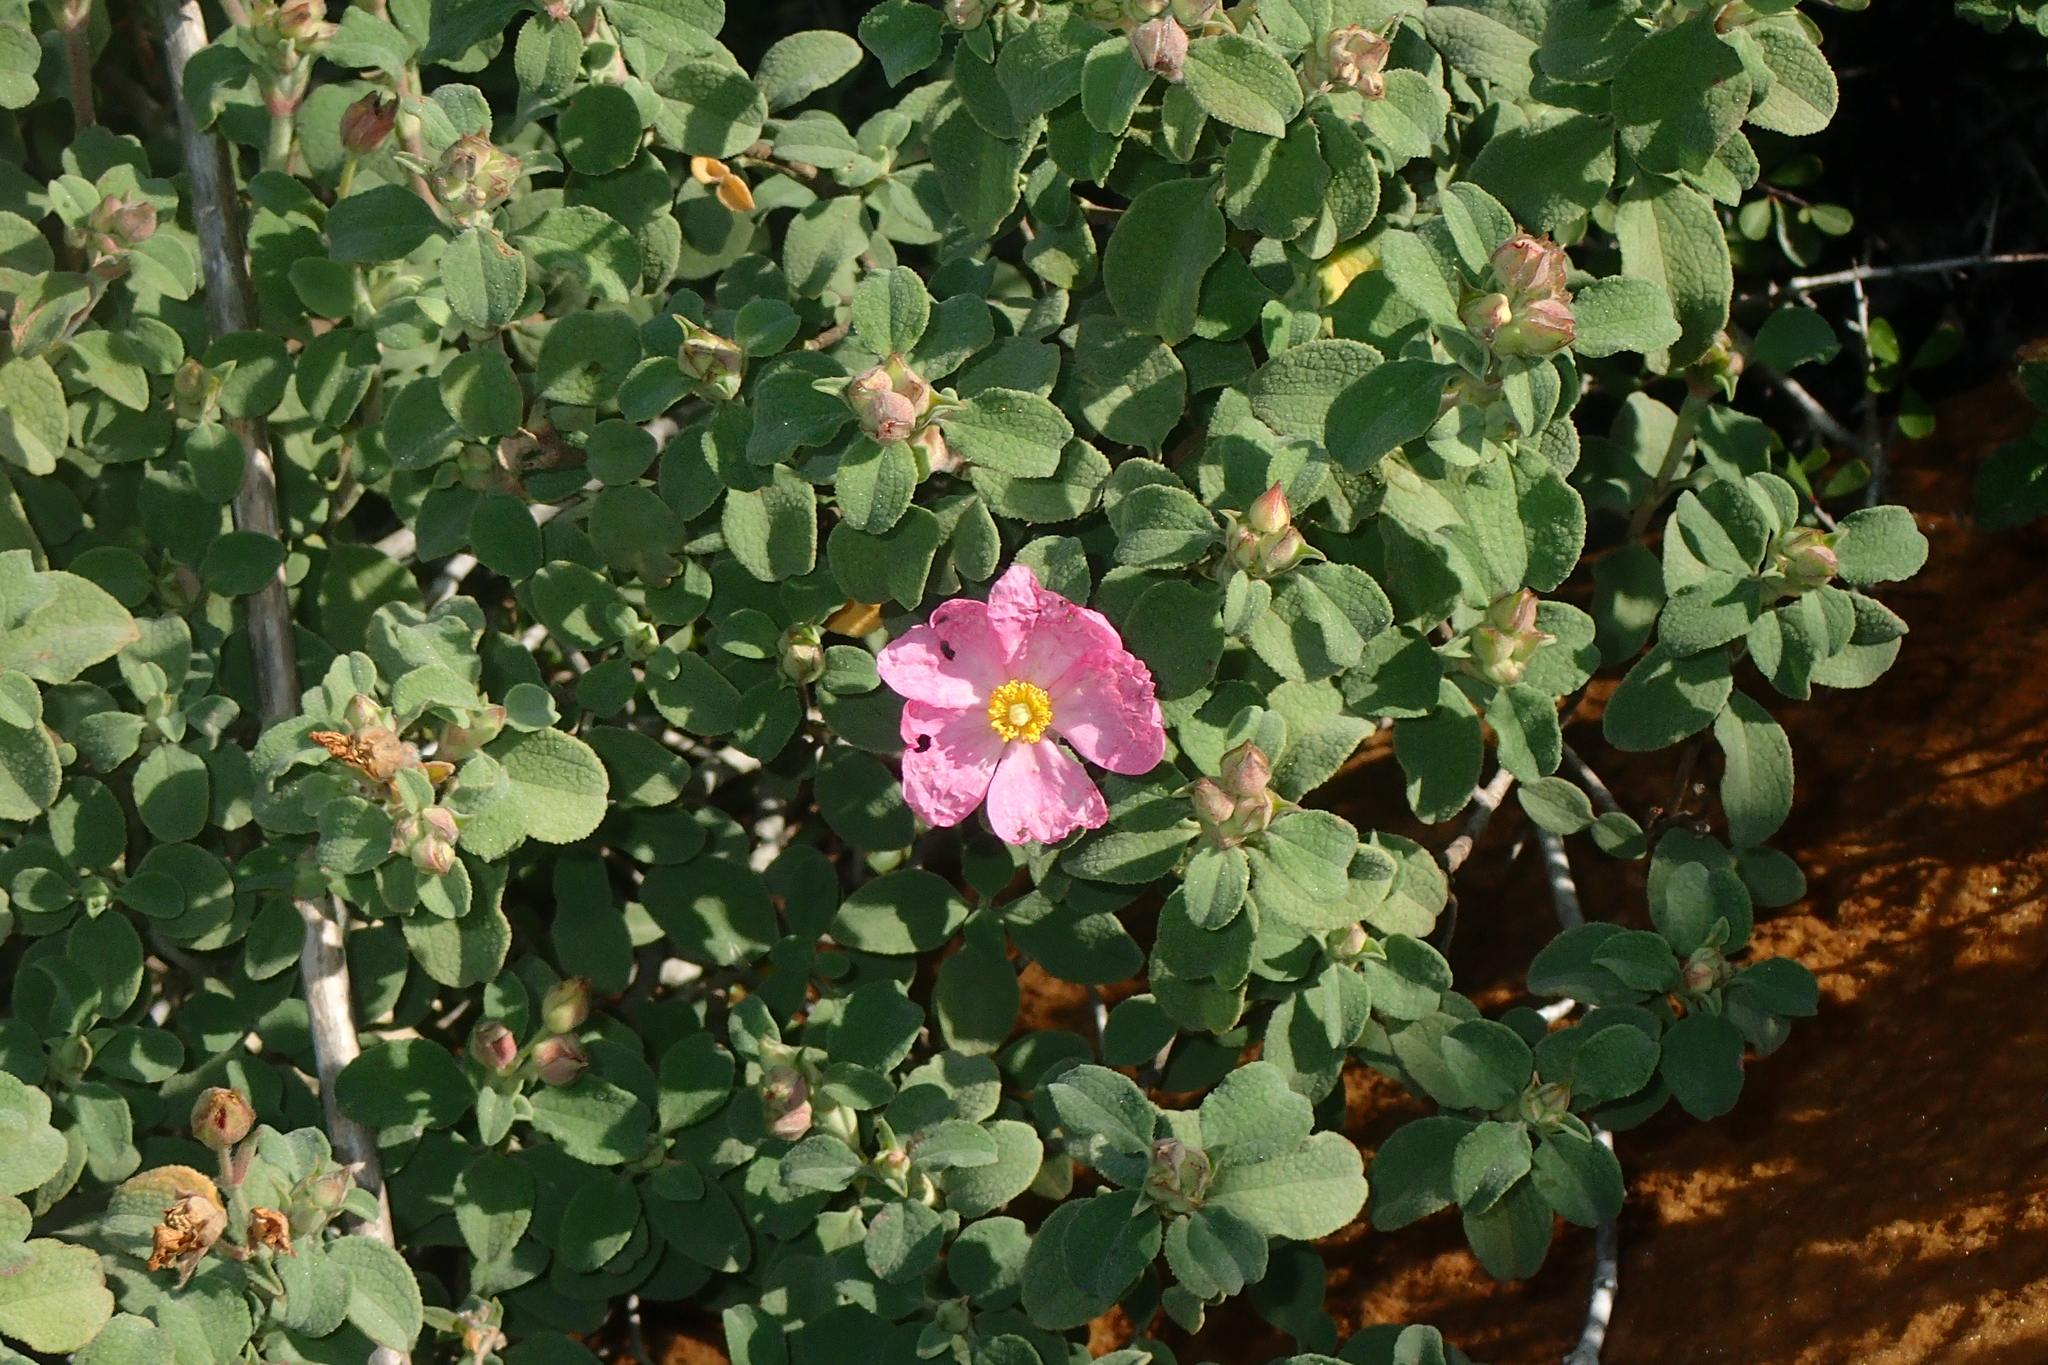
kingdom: Plantae
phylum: Tracheophyta
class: Magnoliopsida
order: Malvales
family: Cistaceae
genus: Cistus
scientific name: Cistus parviflorus
